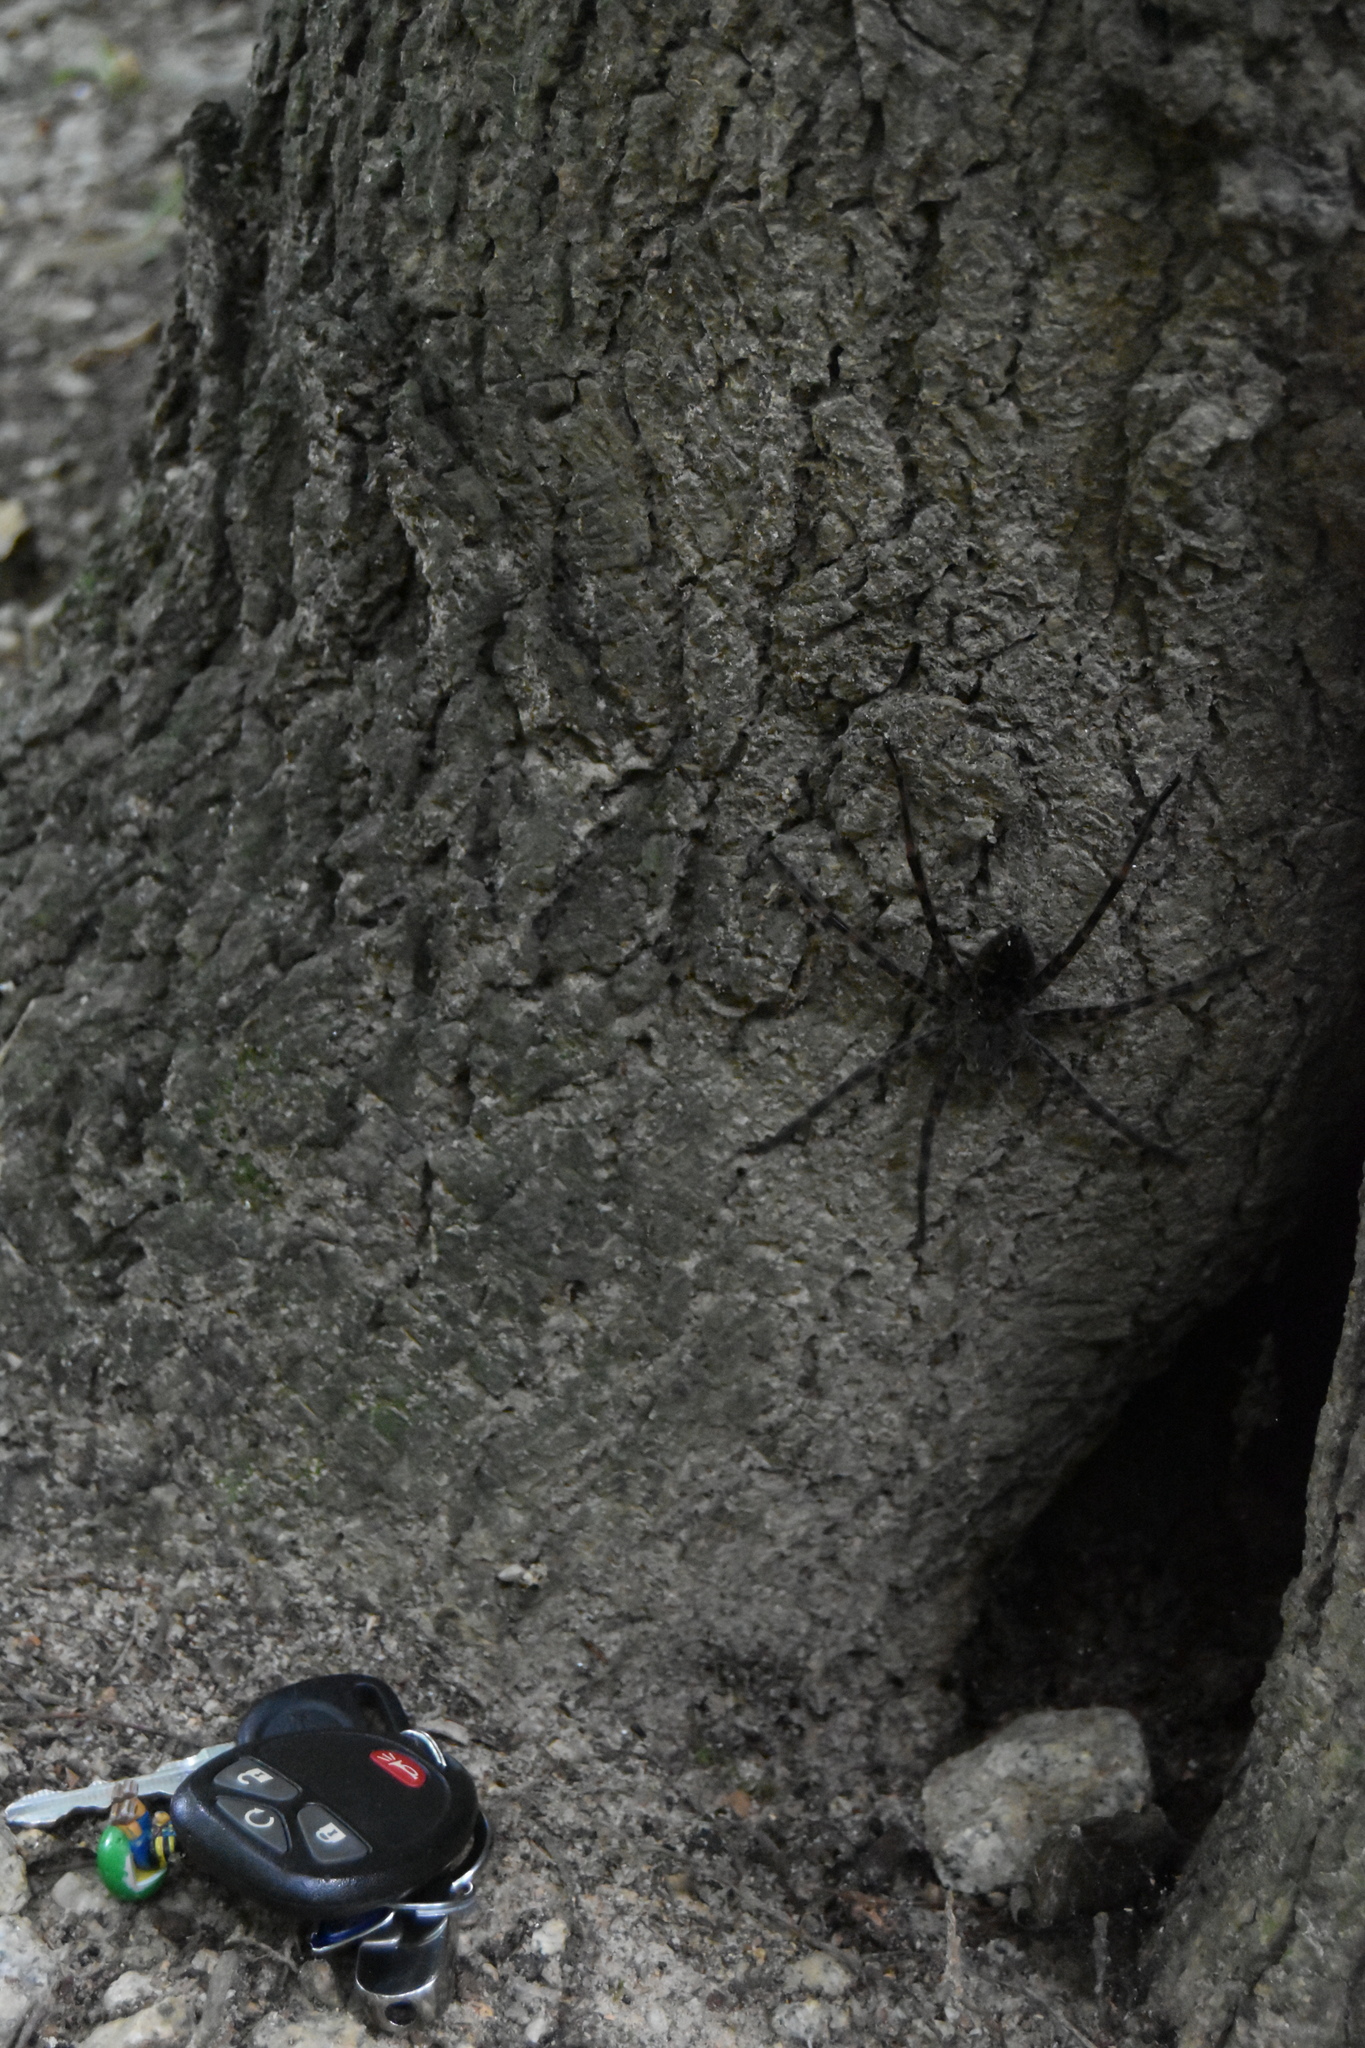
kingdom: Animalia
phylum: Arthropoda
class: Arachnida
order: Araneae
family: Pisauridae
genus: Dolomedes
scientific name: Dolomedes tenebrosus
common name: Dark fishing spider
